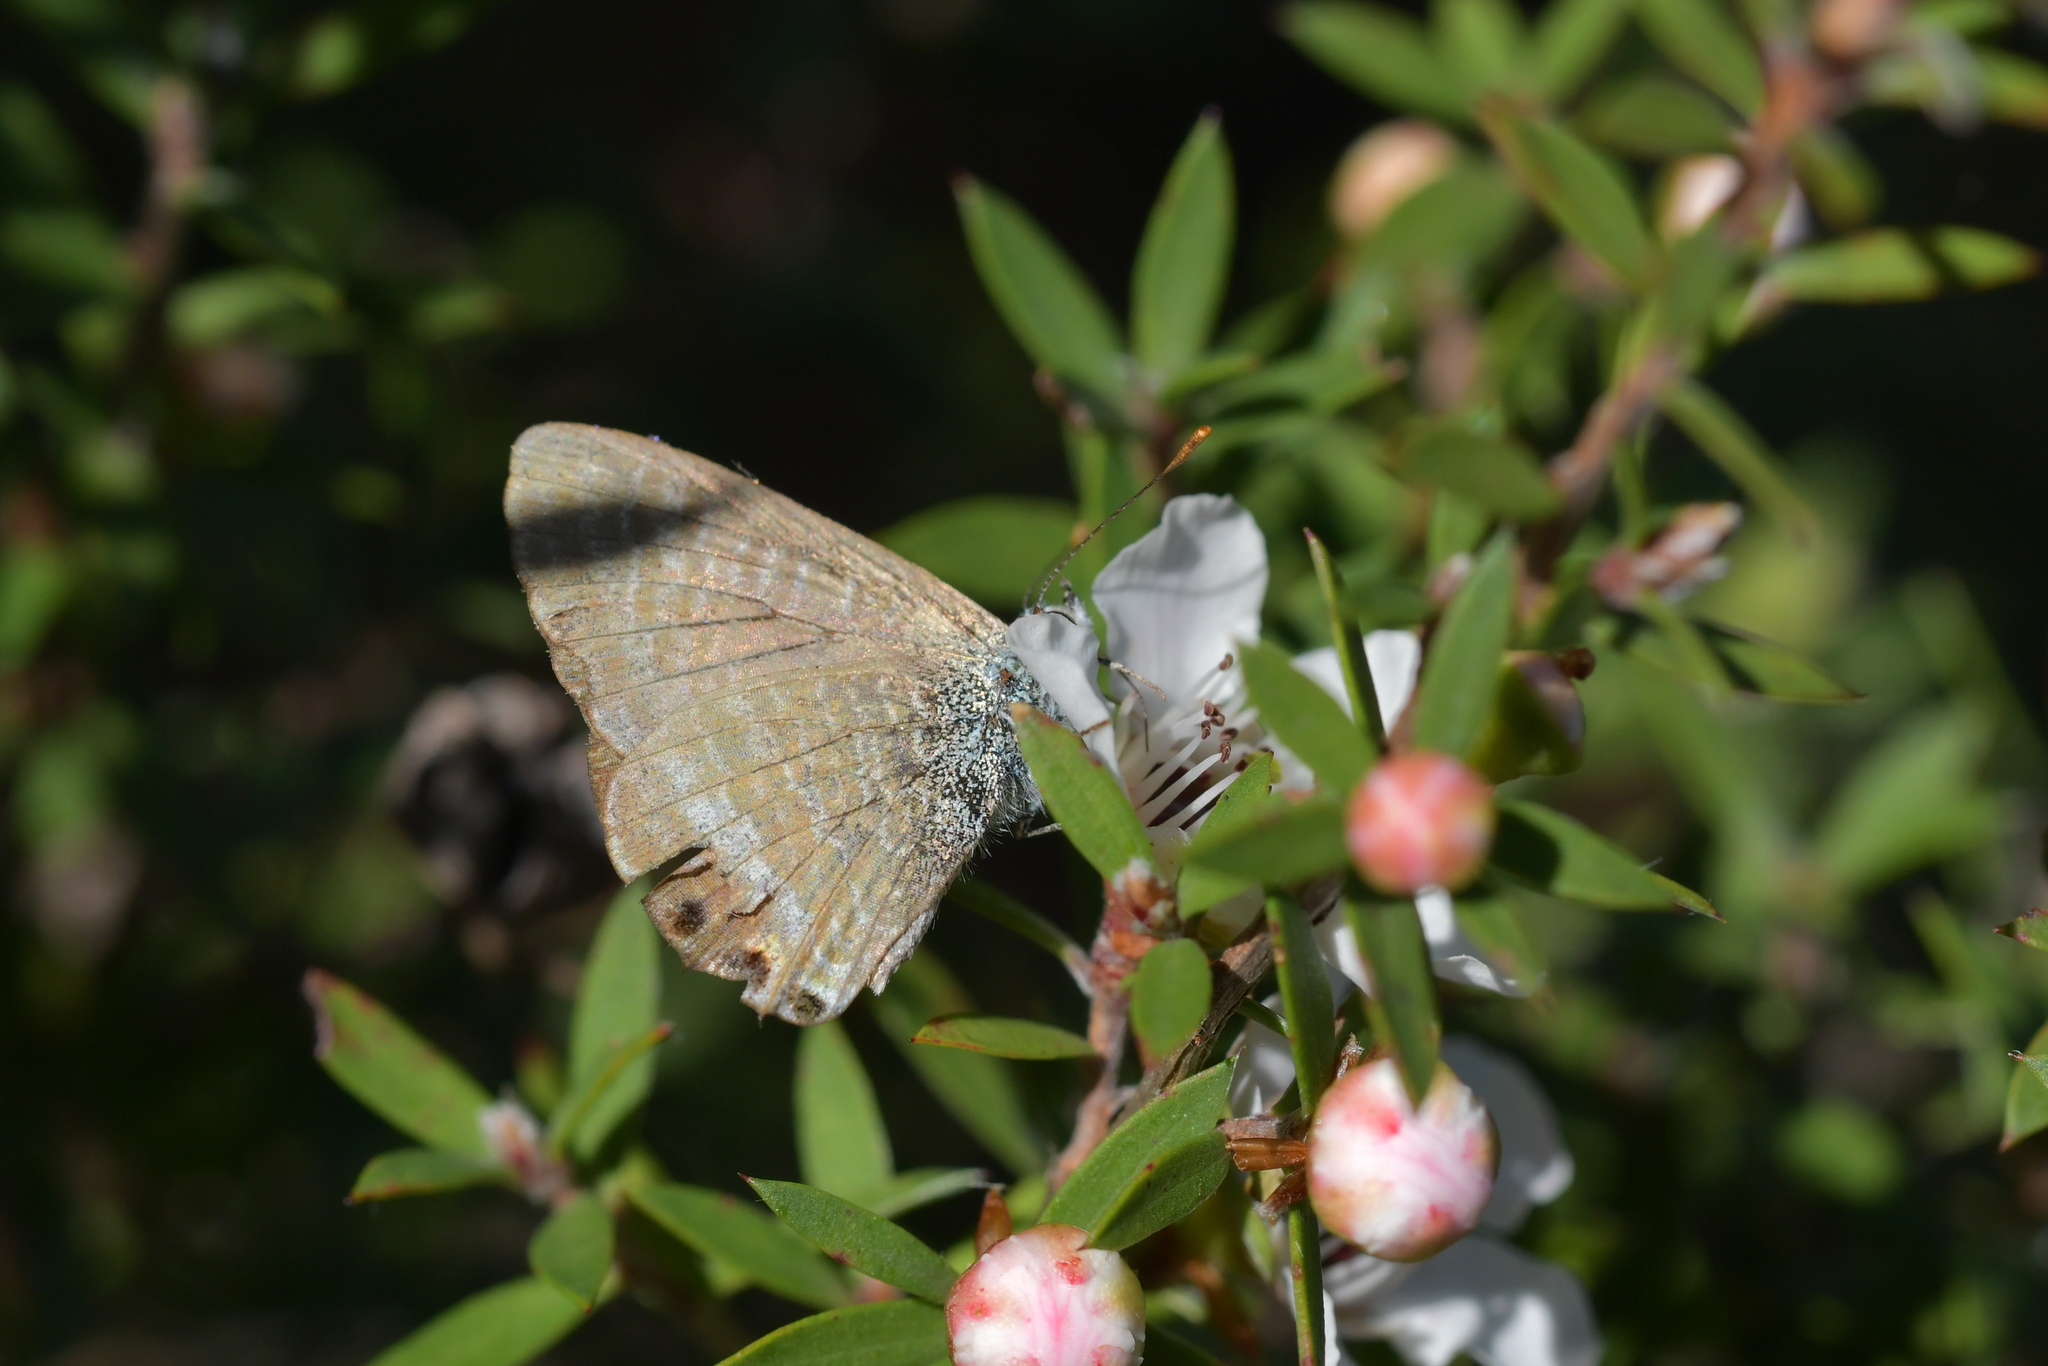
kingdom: Animalia
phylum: Arthropoda
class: Insecta
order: Lepidoptera
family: Lycaenidae
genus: Lampides
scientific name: Lampides boeticus
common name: Long-tailed blue
